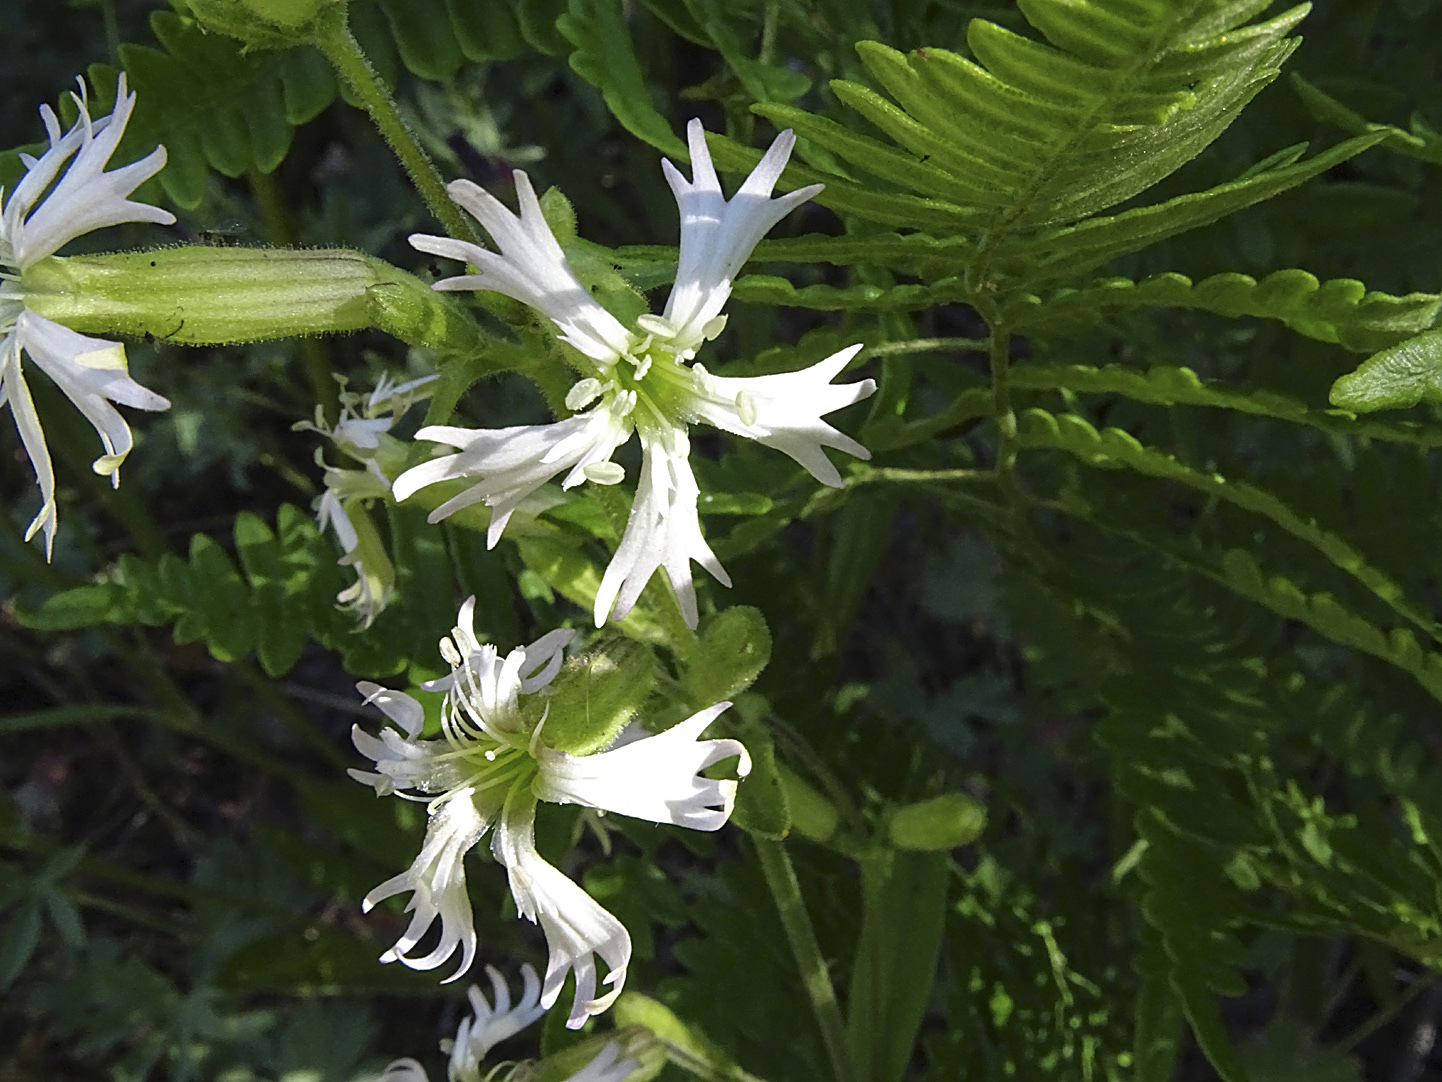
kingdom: Plantae
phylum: Tracheophyta
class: Magnoliopsida
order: Caryophyllales
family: Caryophyllaceae
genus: Silene
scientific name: Silene occidentalis
